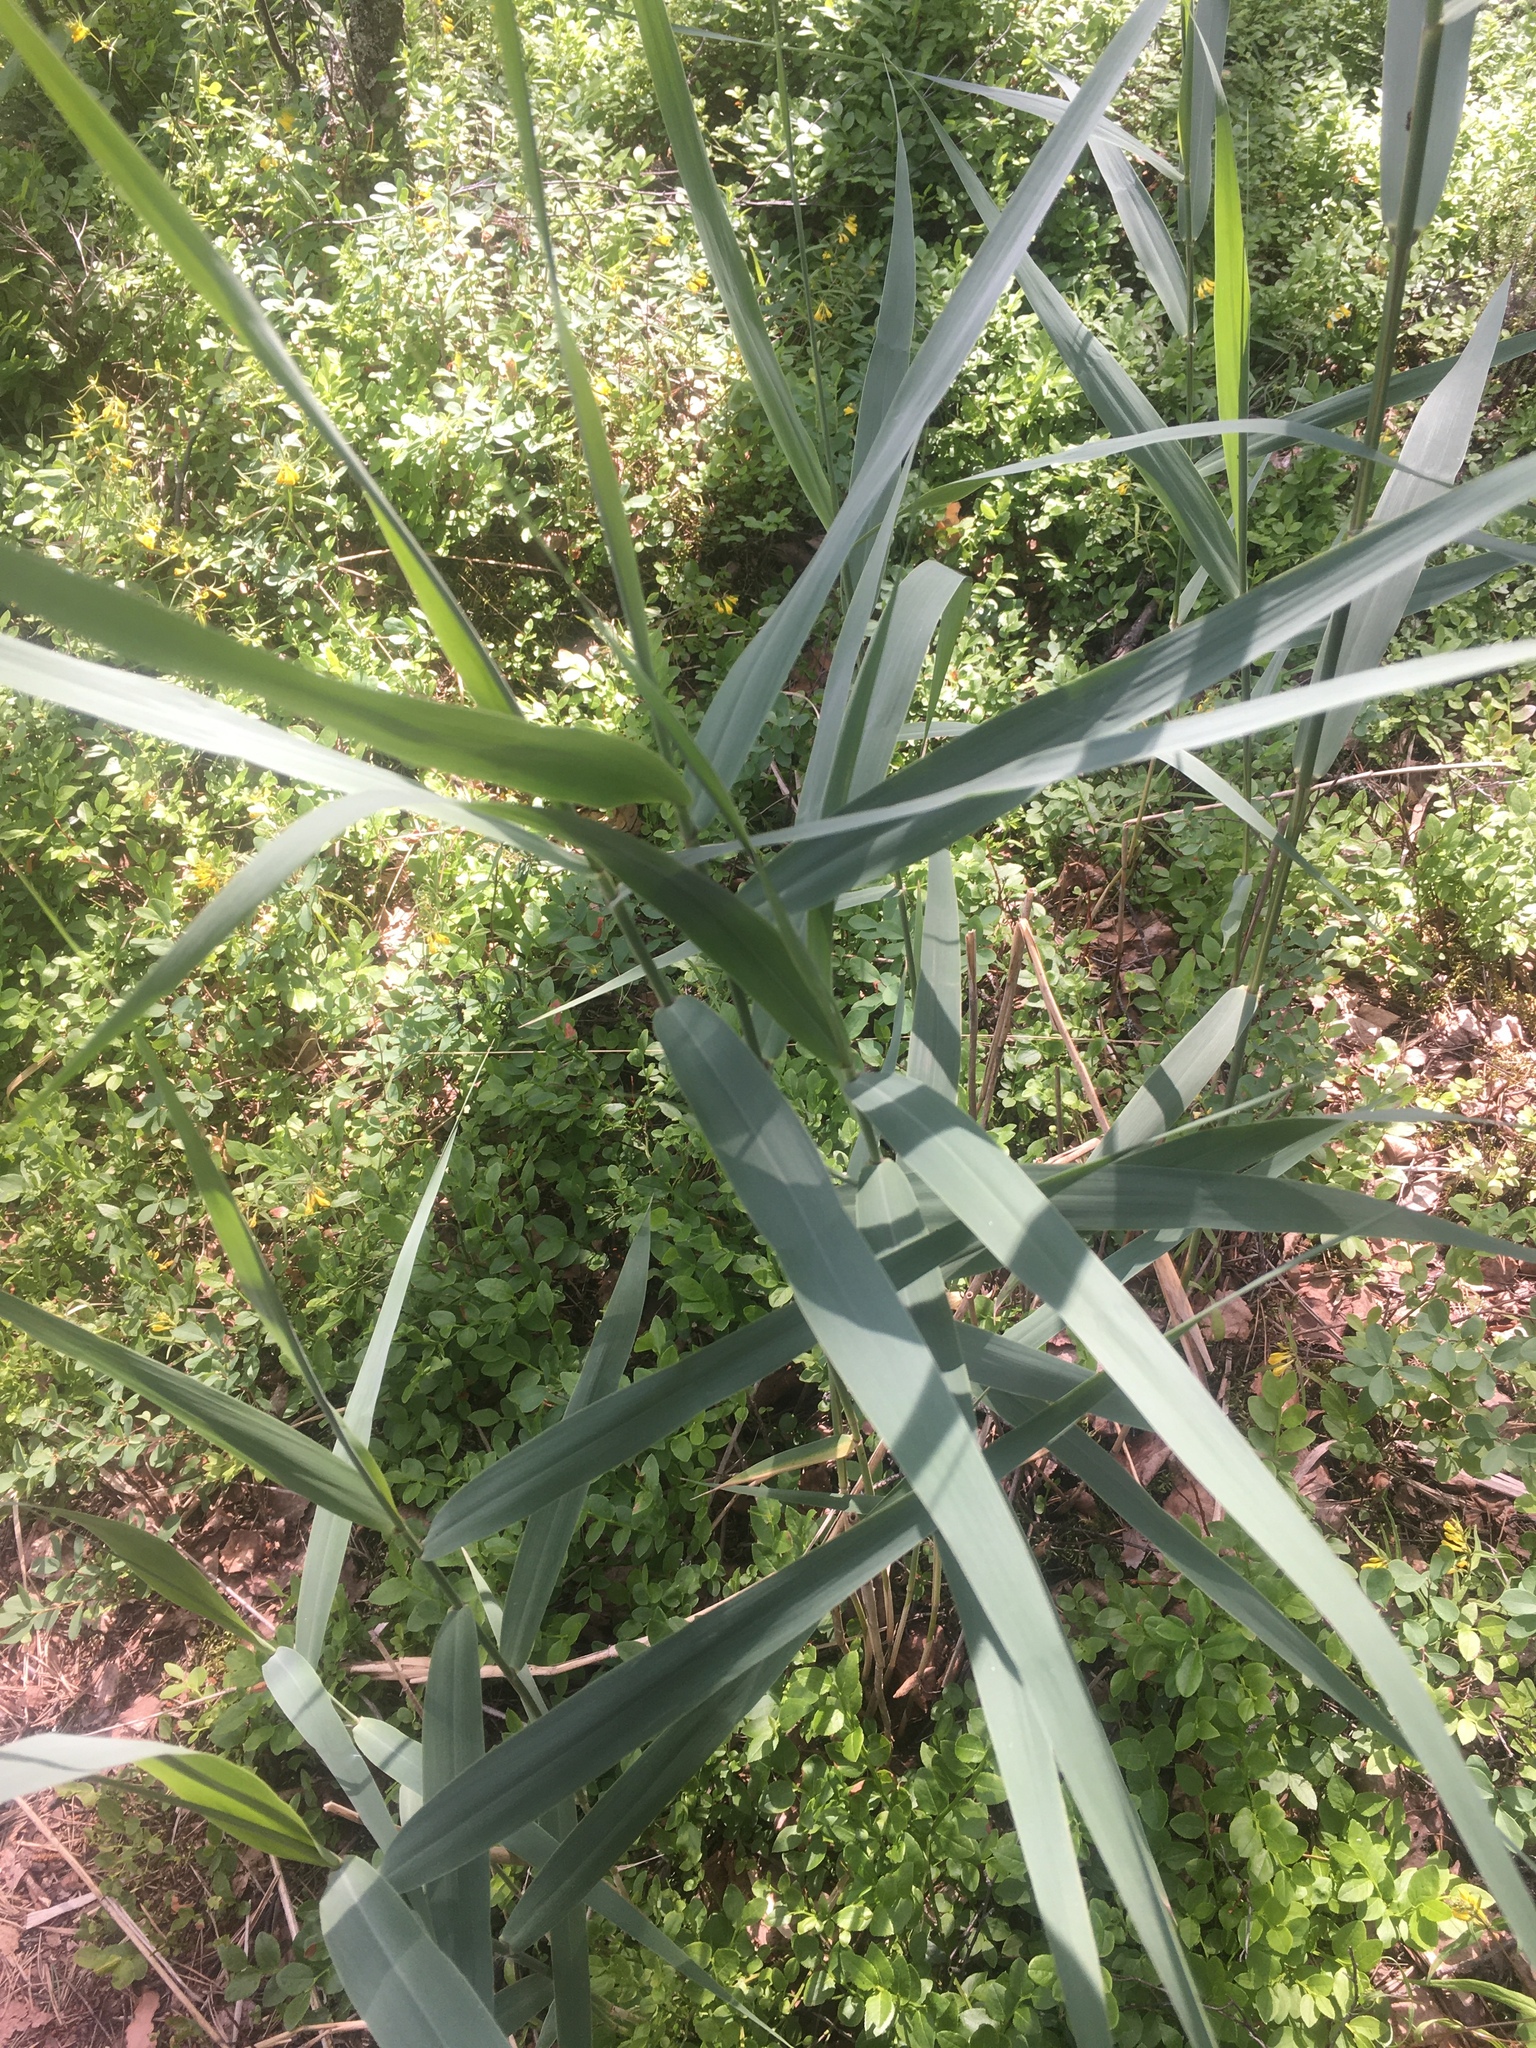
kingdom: Plantae
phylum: Tracheophyta
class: Liliopsida
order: Poales
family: Poaceae
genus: Phragmites
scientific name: Phragmites australis
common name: Common reed
